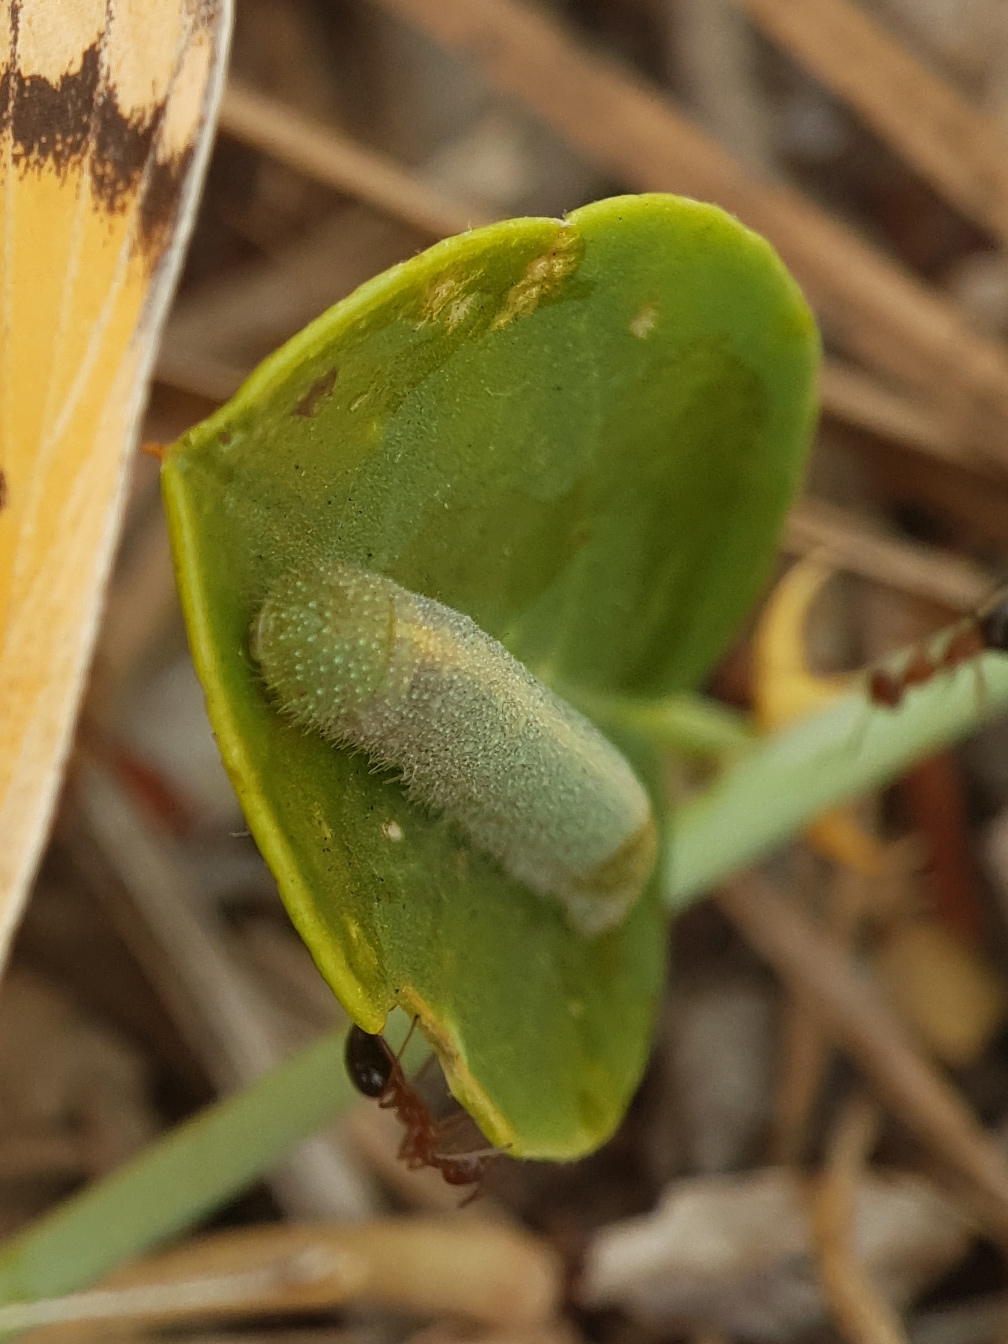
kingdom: Animalia
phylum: Arthropoda
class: Insecta
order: Lepidoptera
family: Pieridae
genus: Colotis
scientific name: Colotis fausta
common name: Large salmon arab
